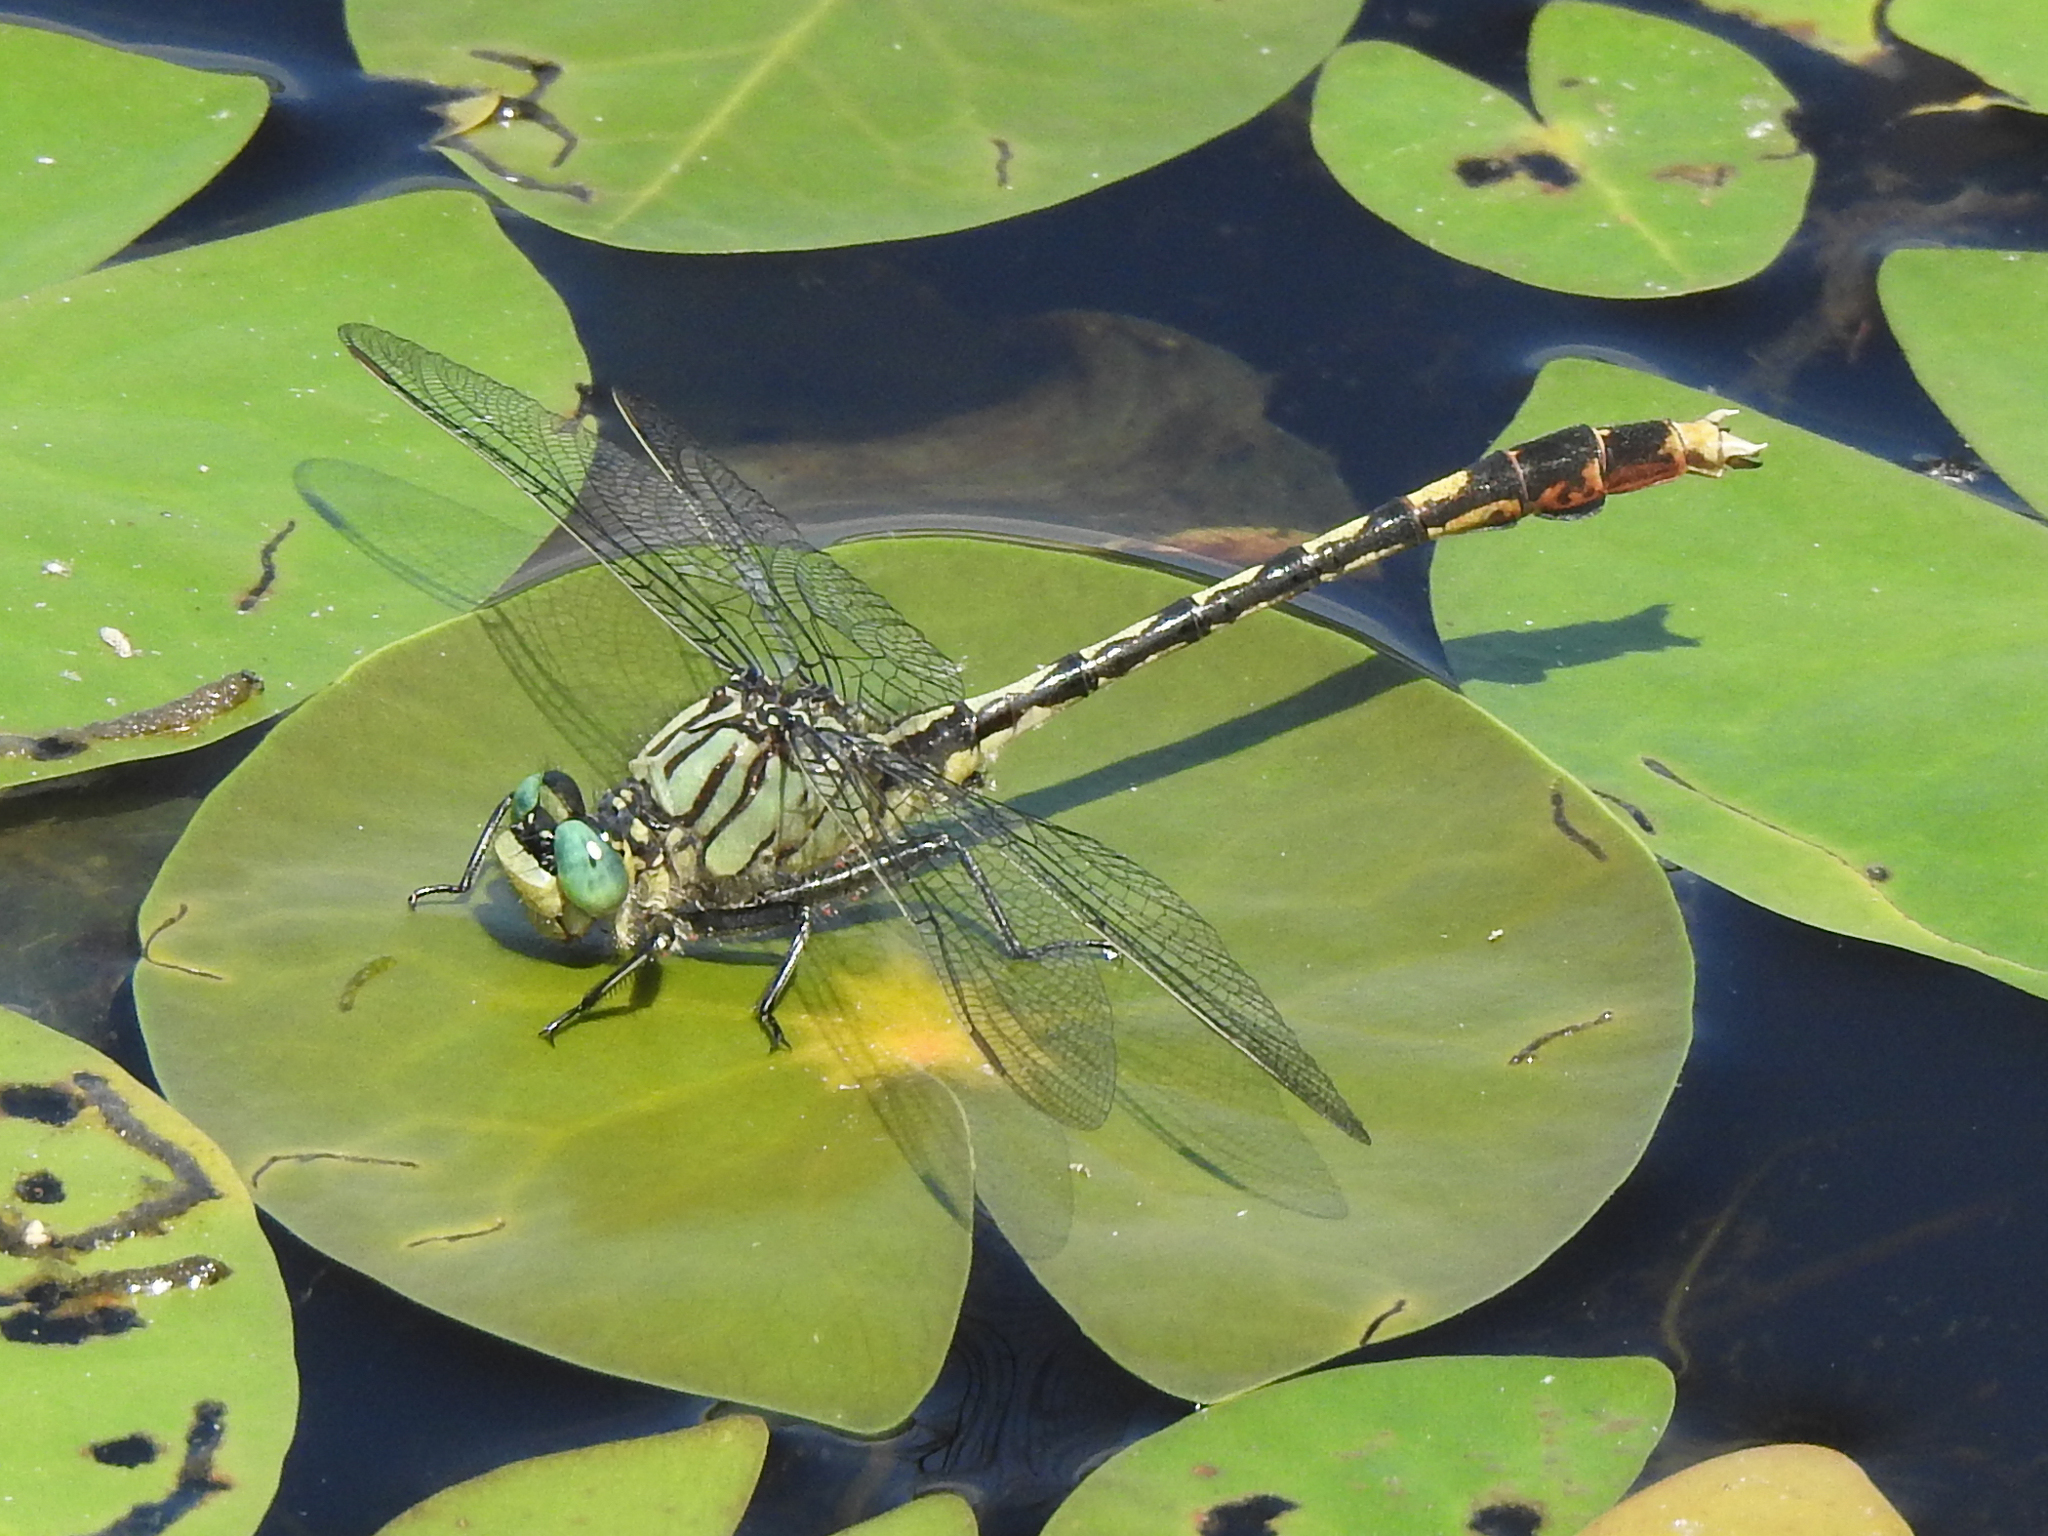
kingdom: Animalia
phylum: Arthropoda
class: Insecta
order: Odonata
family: Gomphidae
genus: Arigomphus
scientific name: Arigomphus villosipes
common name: Unicorn clubtail
